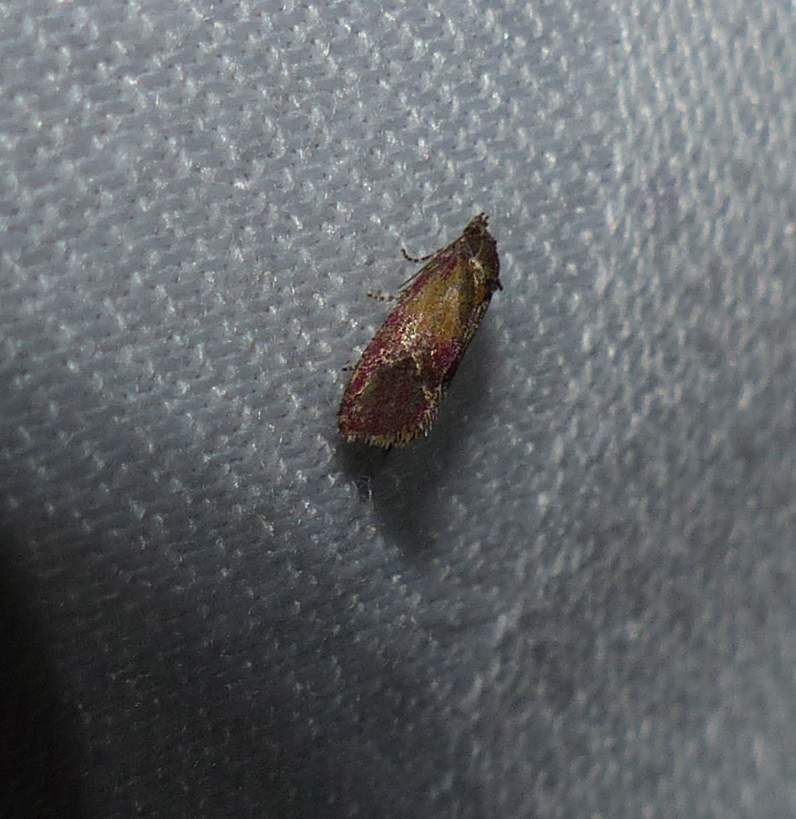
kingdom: Animalia
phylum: Arthropoda
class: Insecta
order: Lepidoptera
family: Tortricidae
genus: Conchylis
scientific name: Conchylis oenotherana
